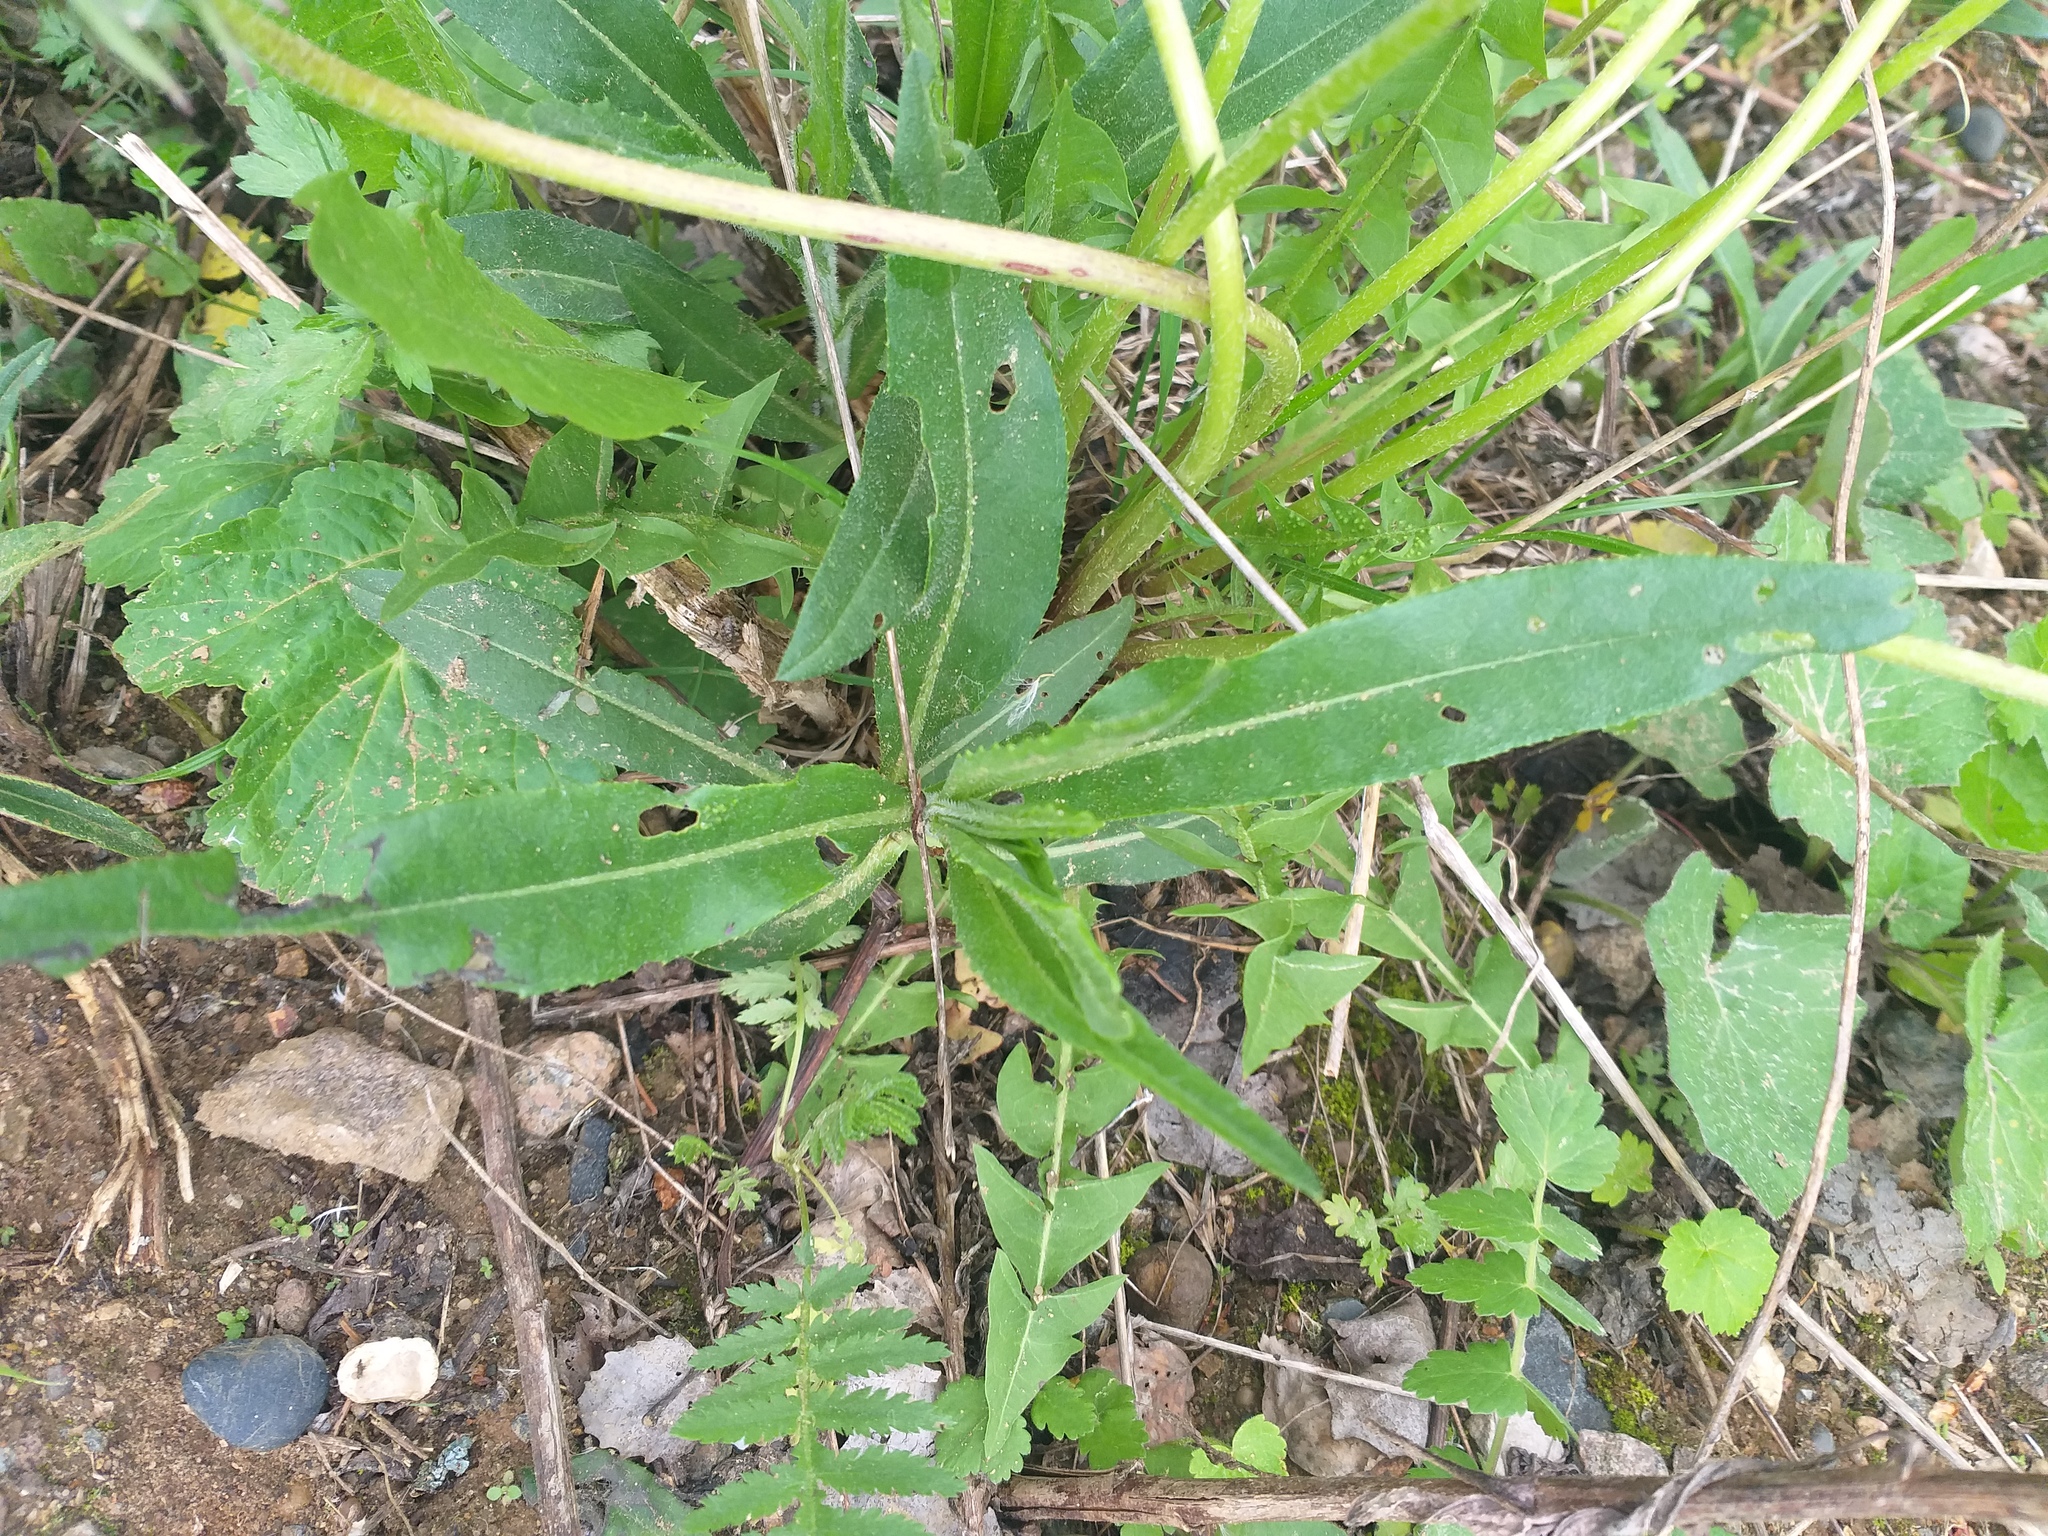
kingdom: Plantae
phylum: Tracheophyta
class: Magnoliopsida
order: Asterales
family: Asteraceae
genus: Cirsium
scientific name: Cirsium arvense
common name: Creeping thistle
